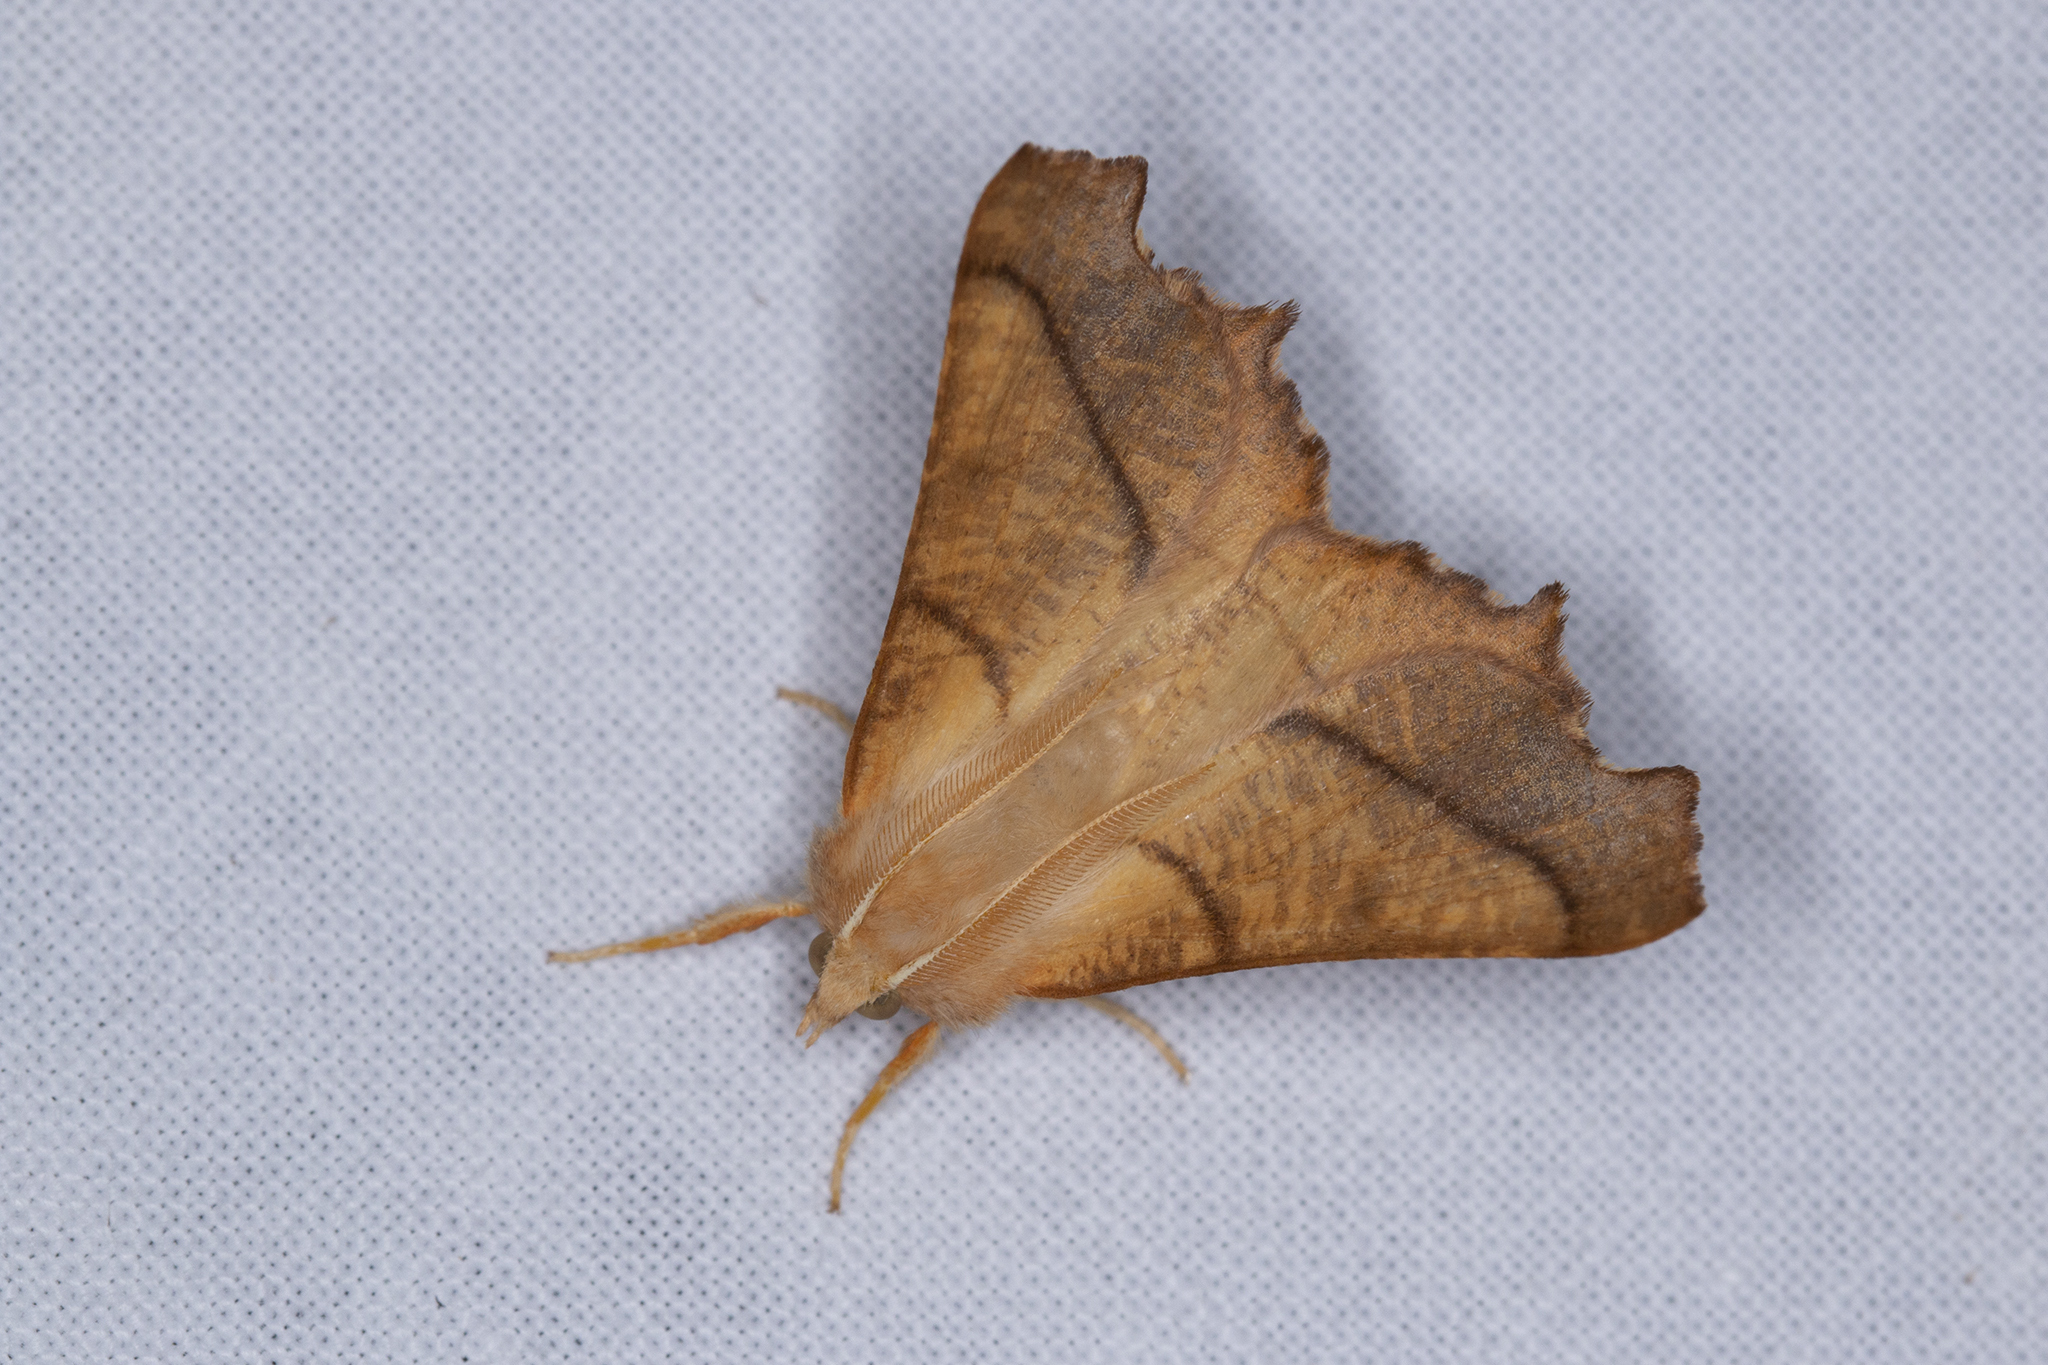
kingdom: Animalia
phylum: Arthropoda
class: Insecta
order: Lepidoptera
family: Geometridae
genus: Ennomos
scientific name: Ennomos fuscantaria
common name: Dusky thorn
